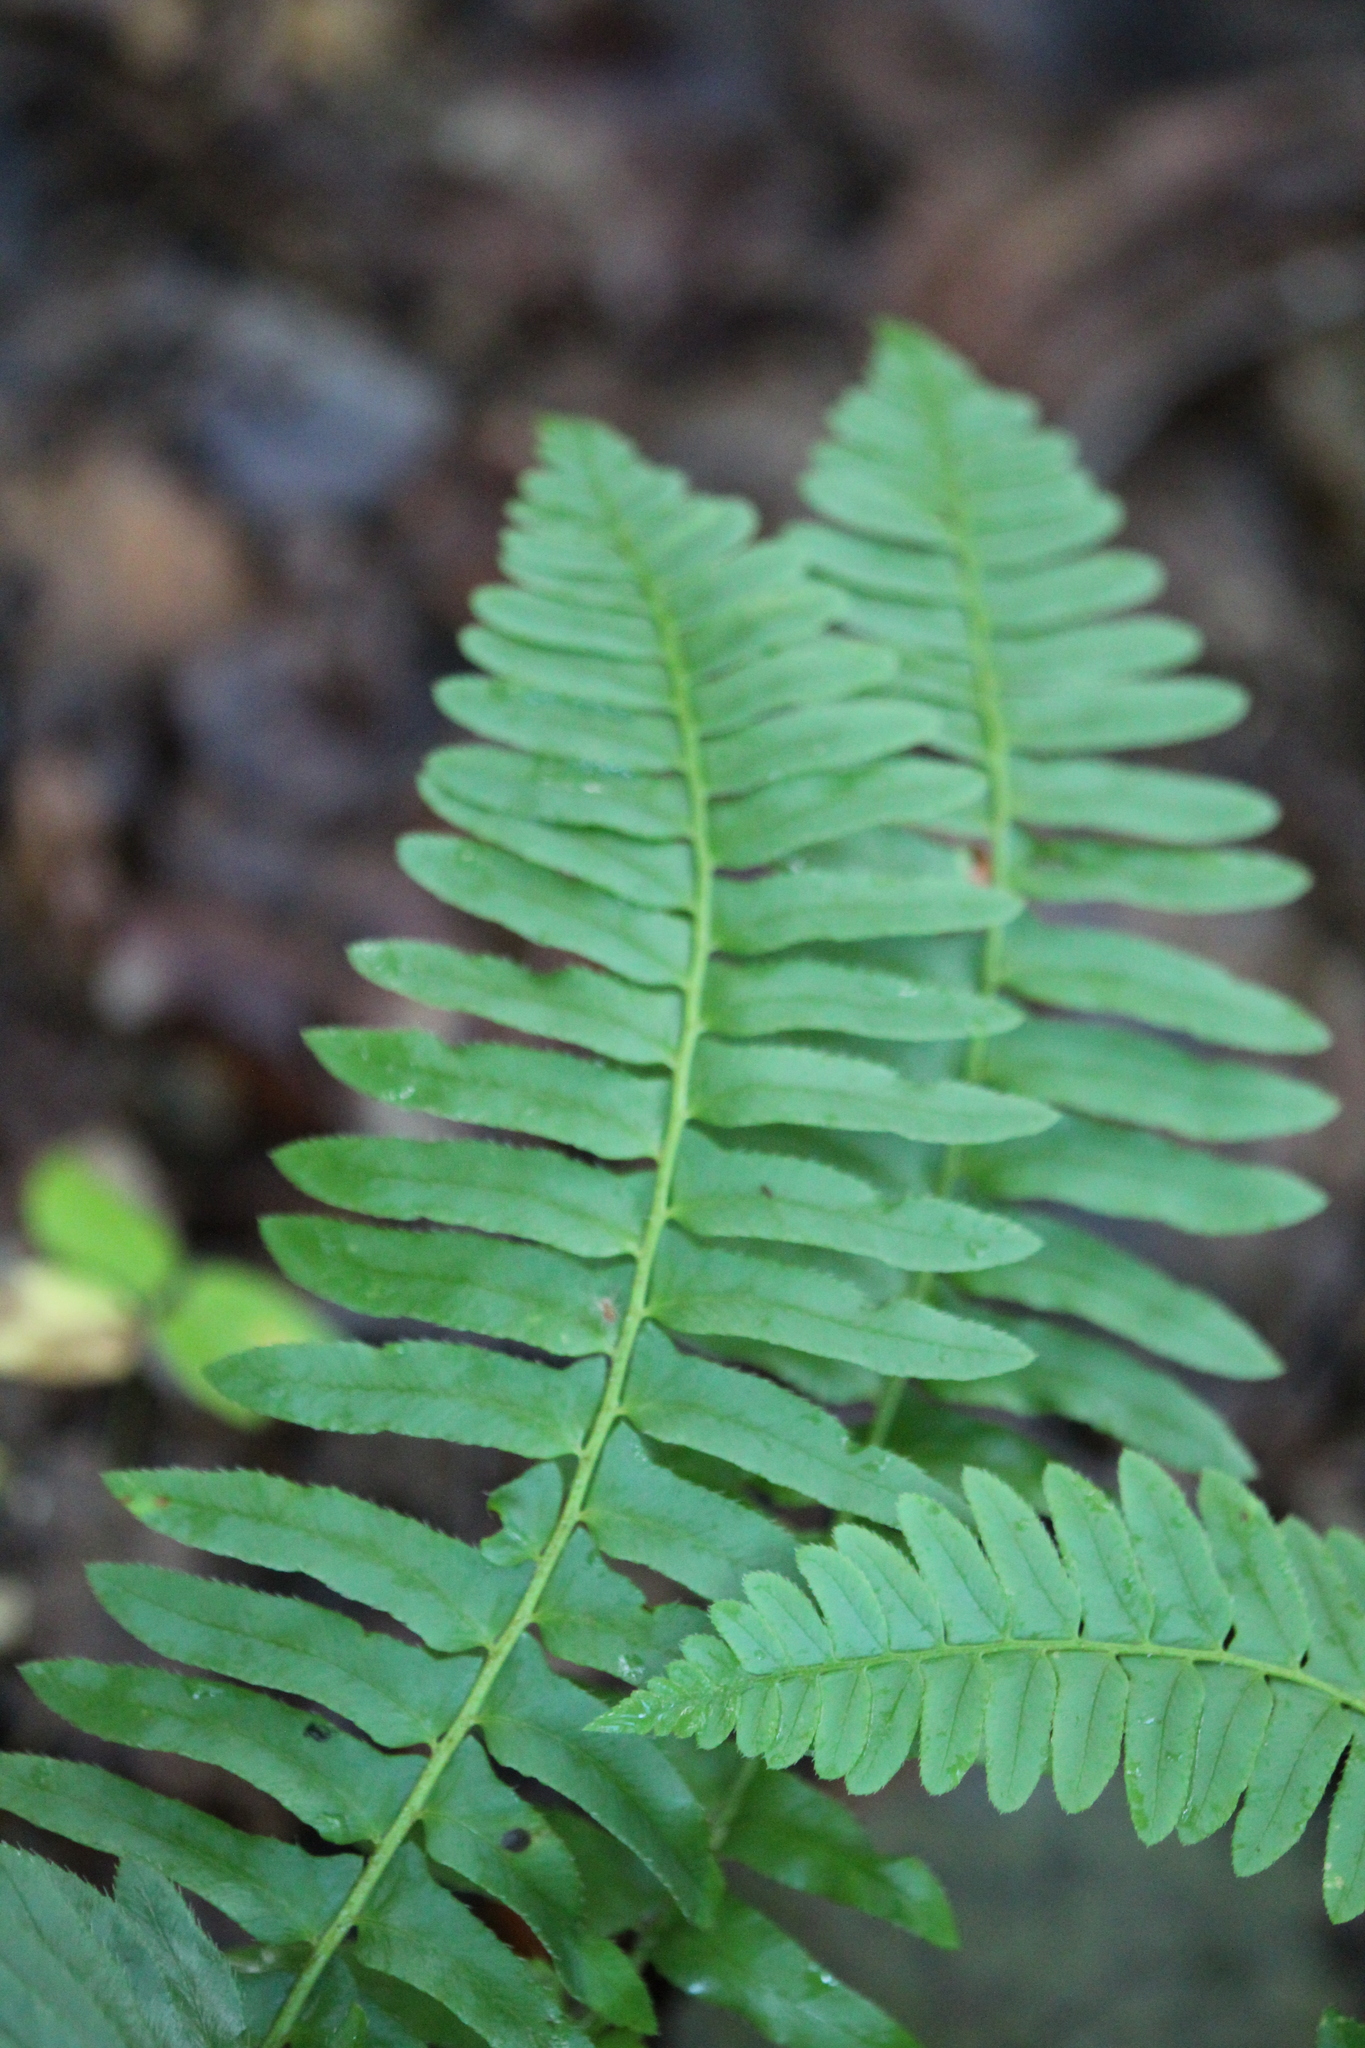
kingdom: Plantae
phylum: Tracheophyta
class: Polypodiopsida
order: Polypodiales
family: Dryopteridaceae
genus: Polystichum
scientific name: Polystichum acrostichoides
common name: Christmas fern
